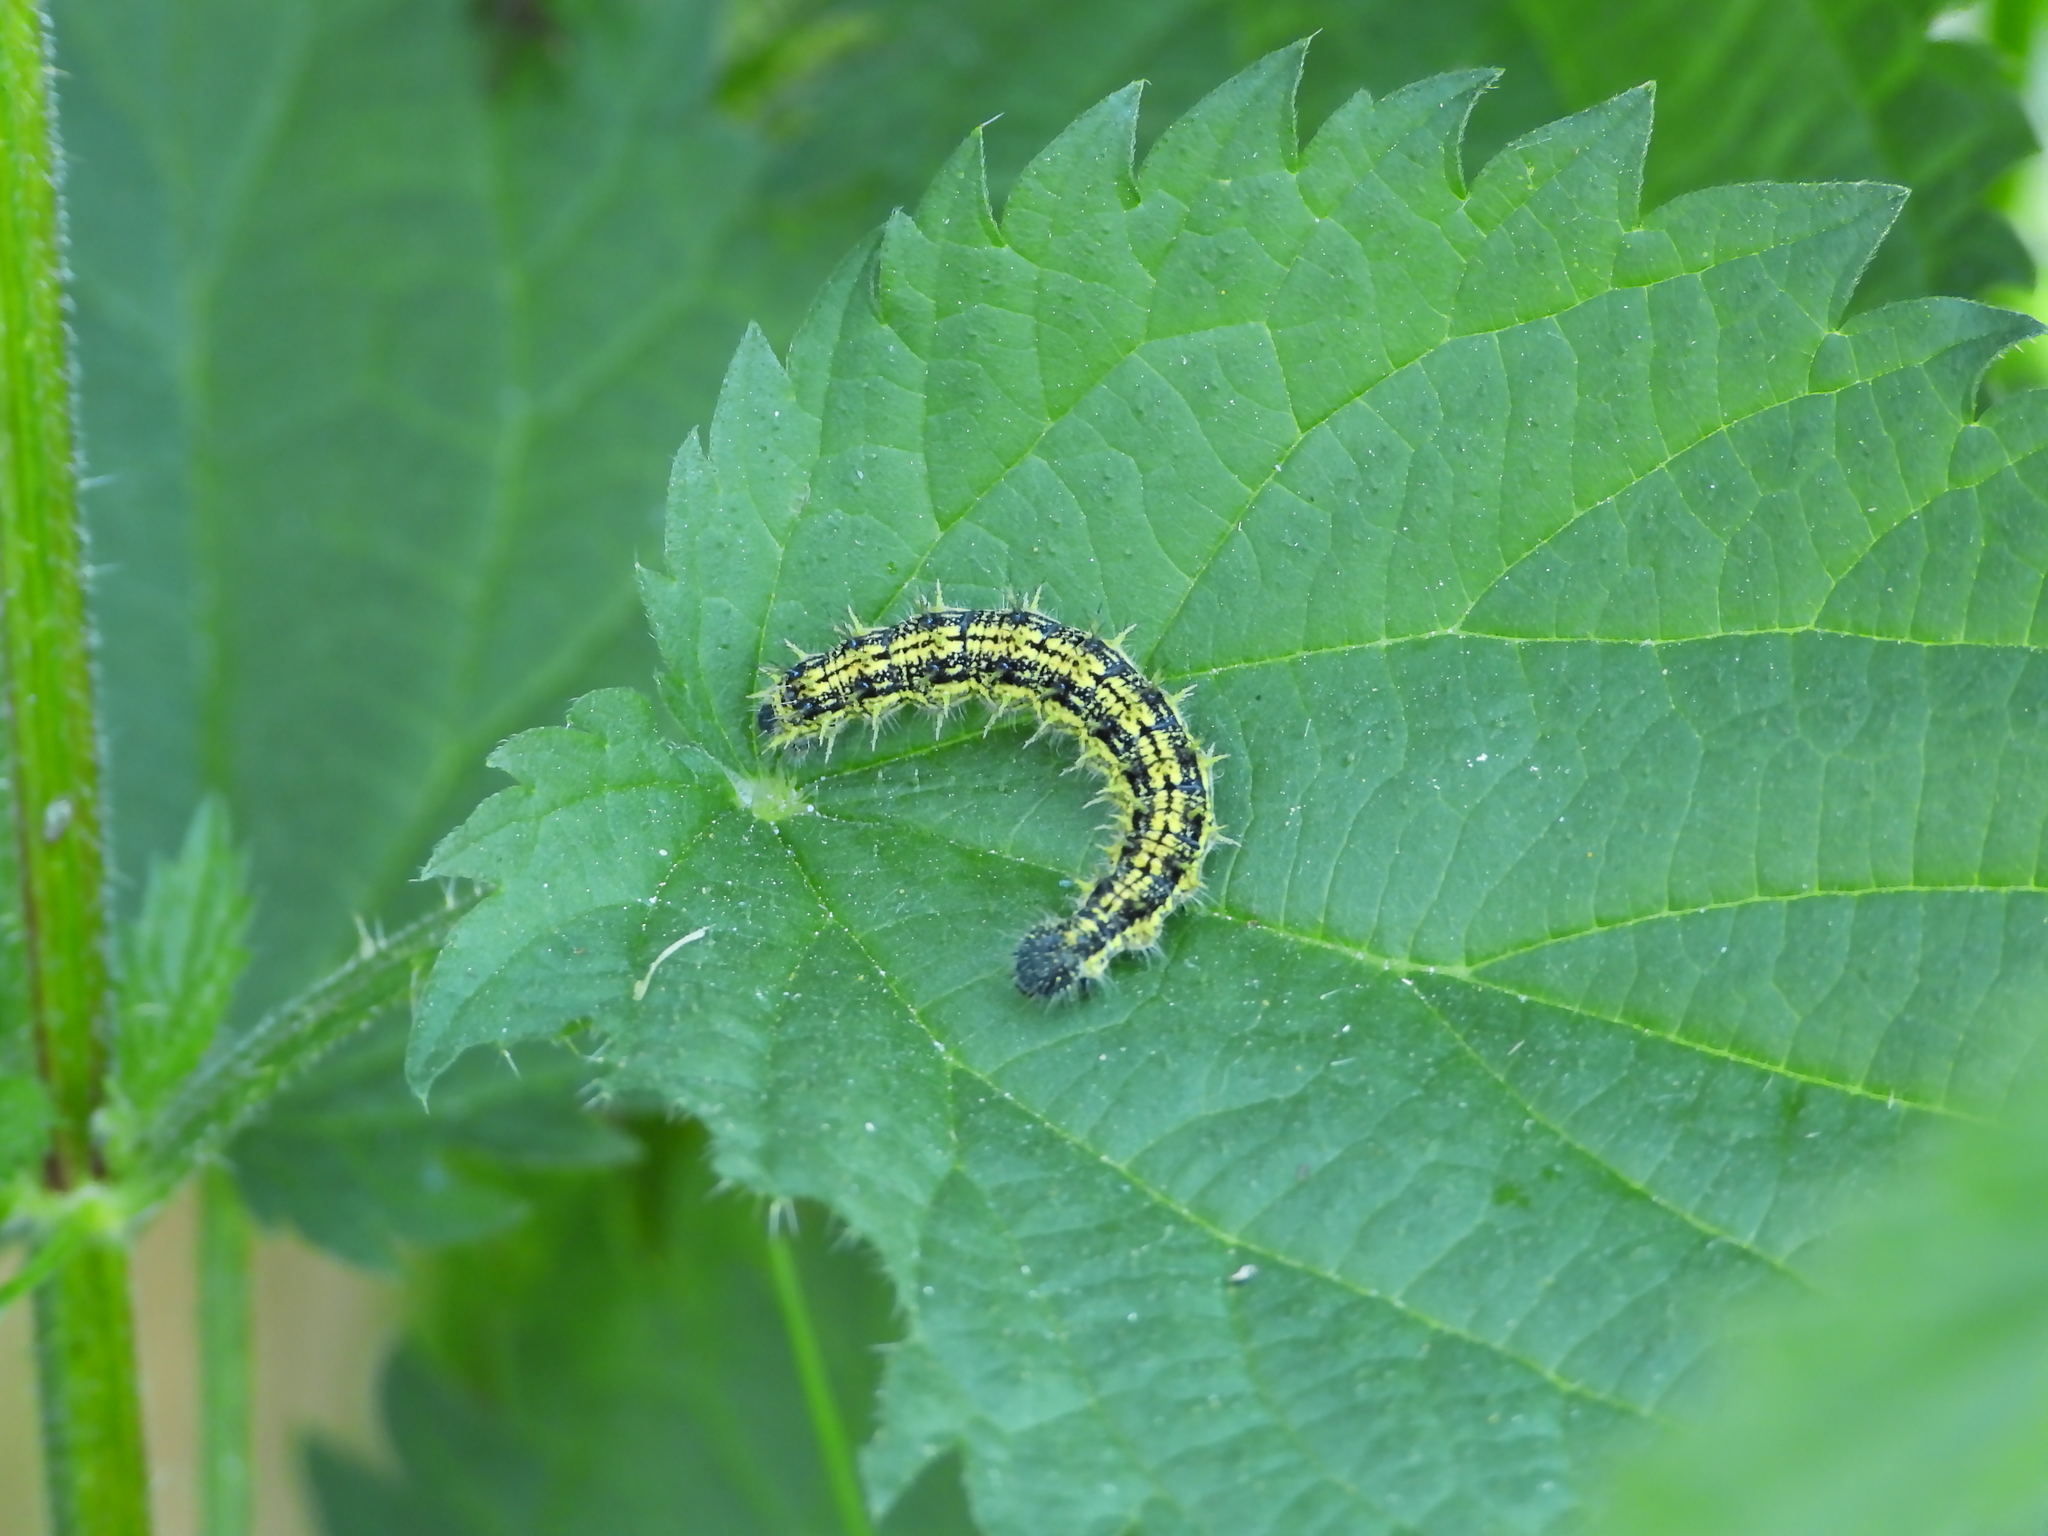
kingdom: Animalia
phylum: Arthropoda
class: Insecta
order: Lepidoptera
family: Nymphalidae
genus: Aglais
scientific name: Aglais urticae
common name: Small tortoiseshell
